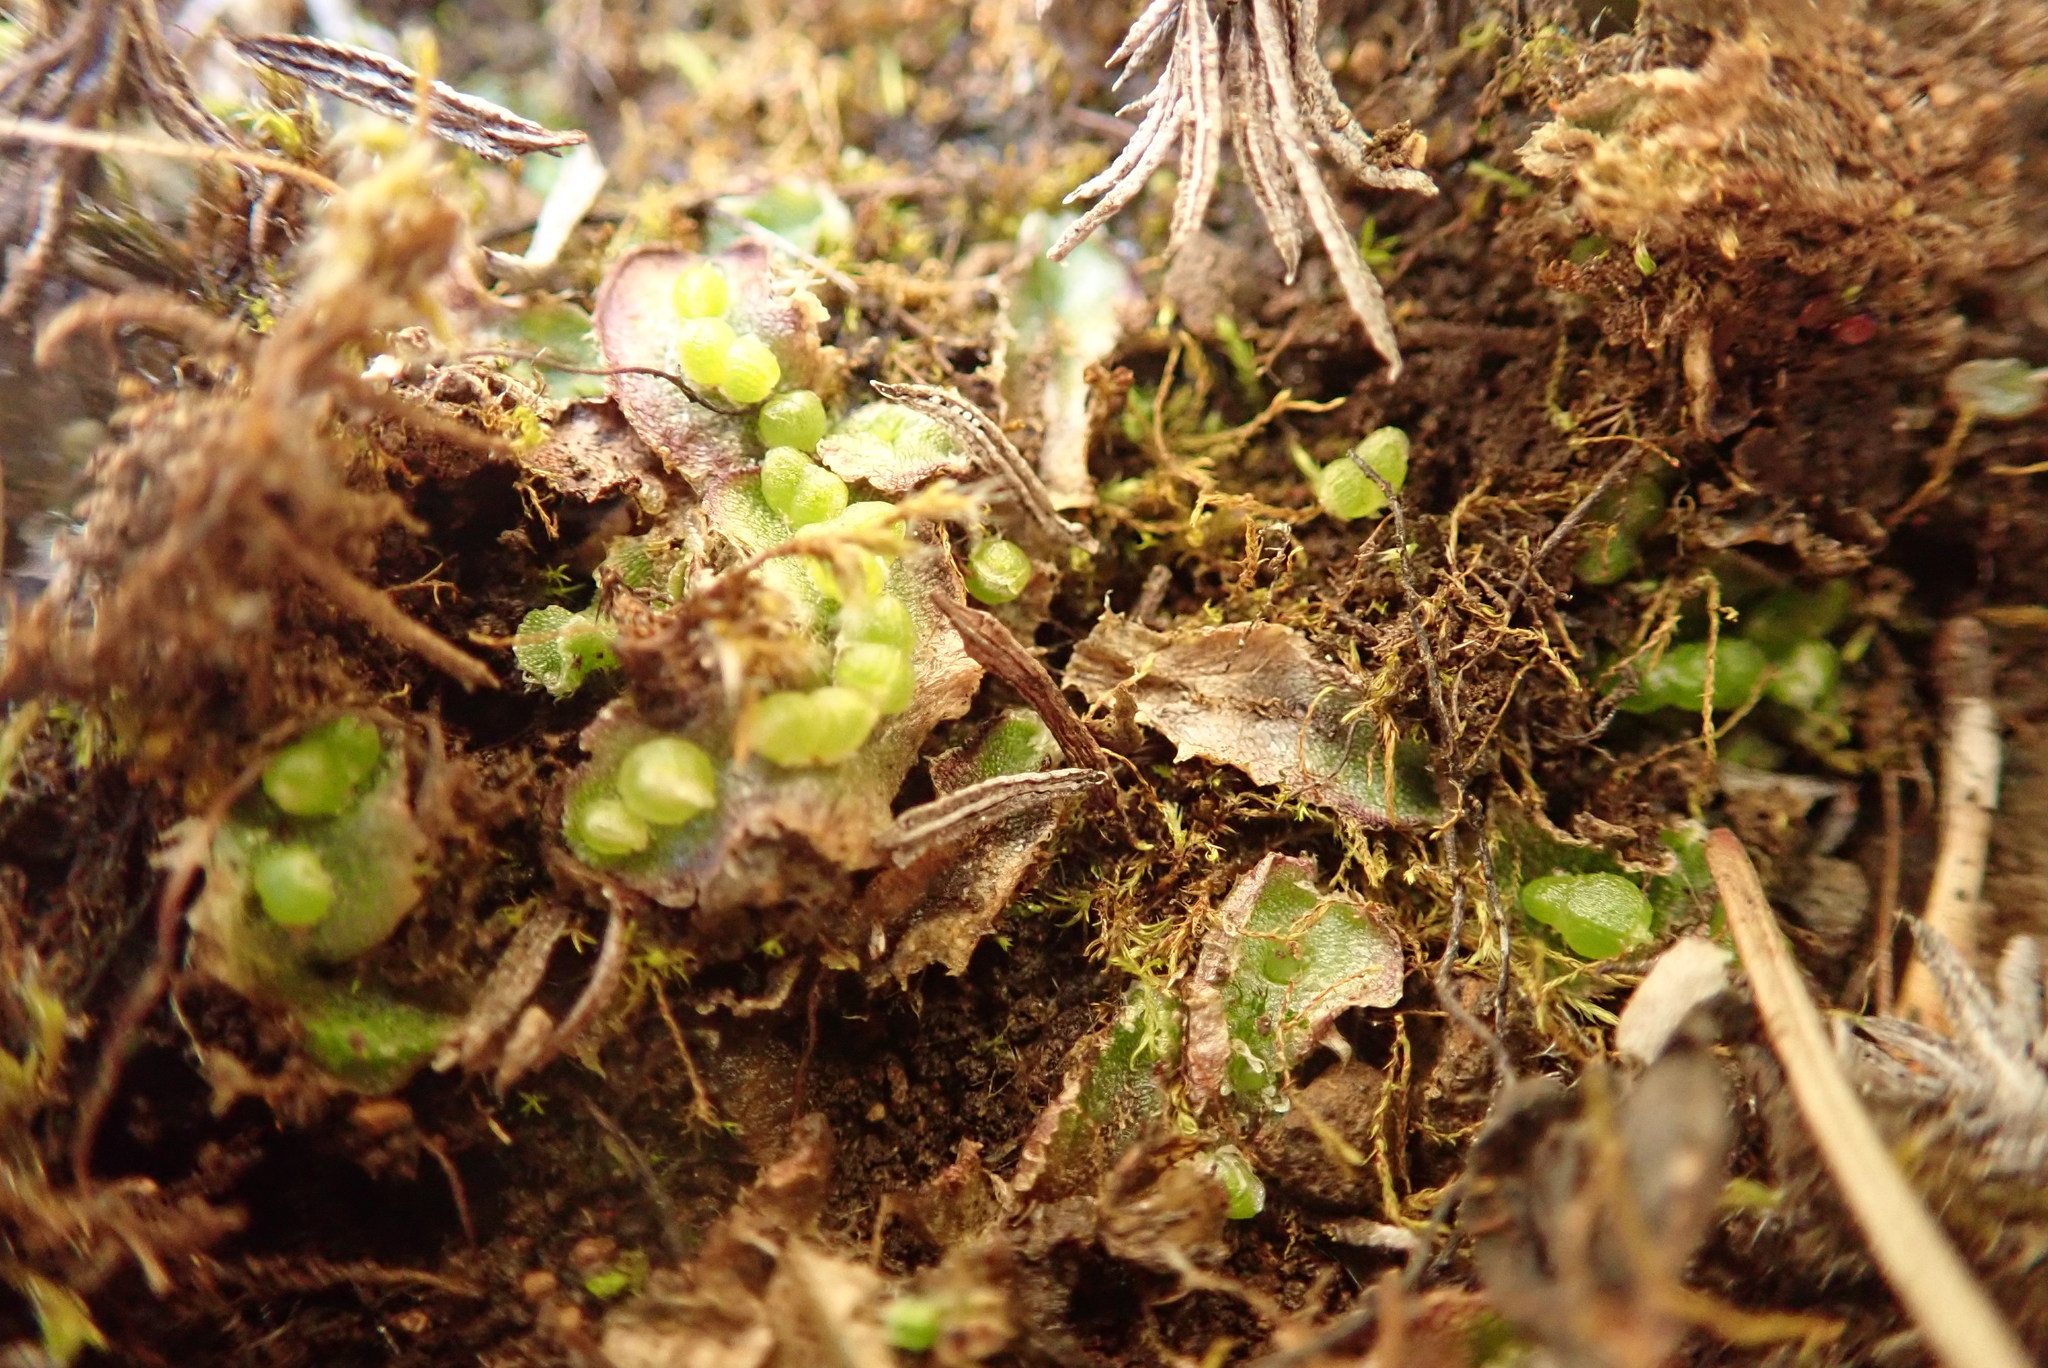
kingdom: Plantae
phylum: Marchantiophyta
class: Marchantiopsida
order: Marchantiales
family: Cleveaceae
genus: Clevea
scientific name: Clevea hyalina
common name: Hyaline liverwort
